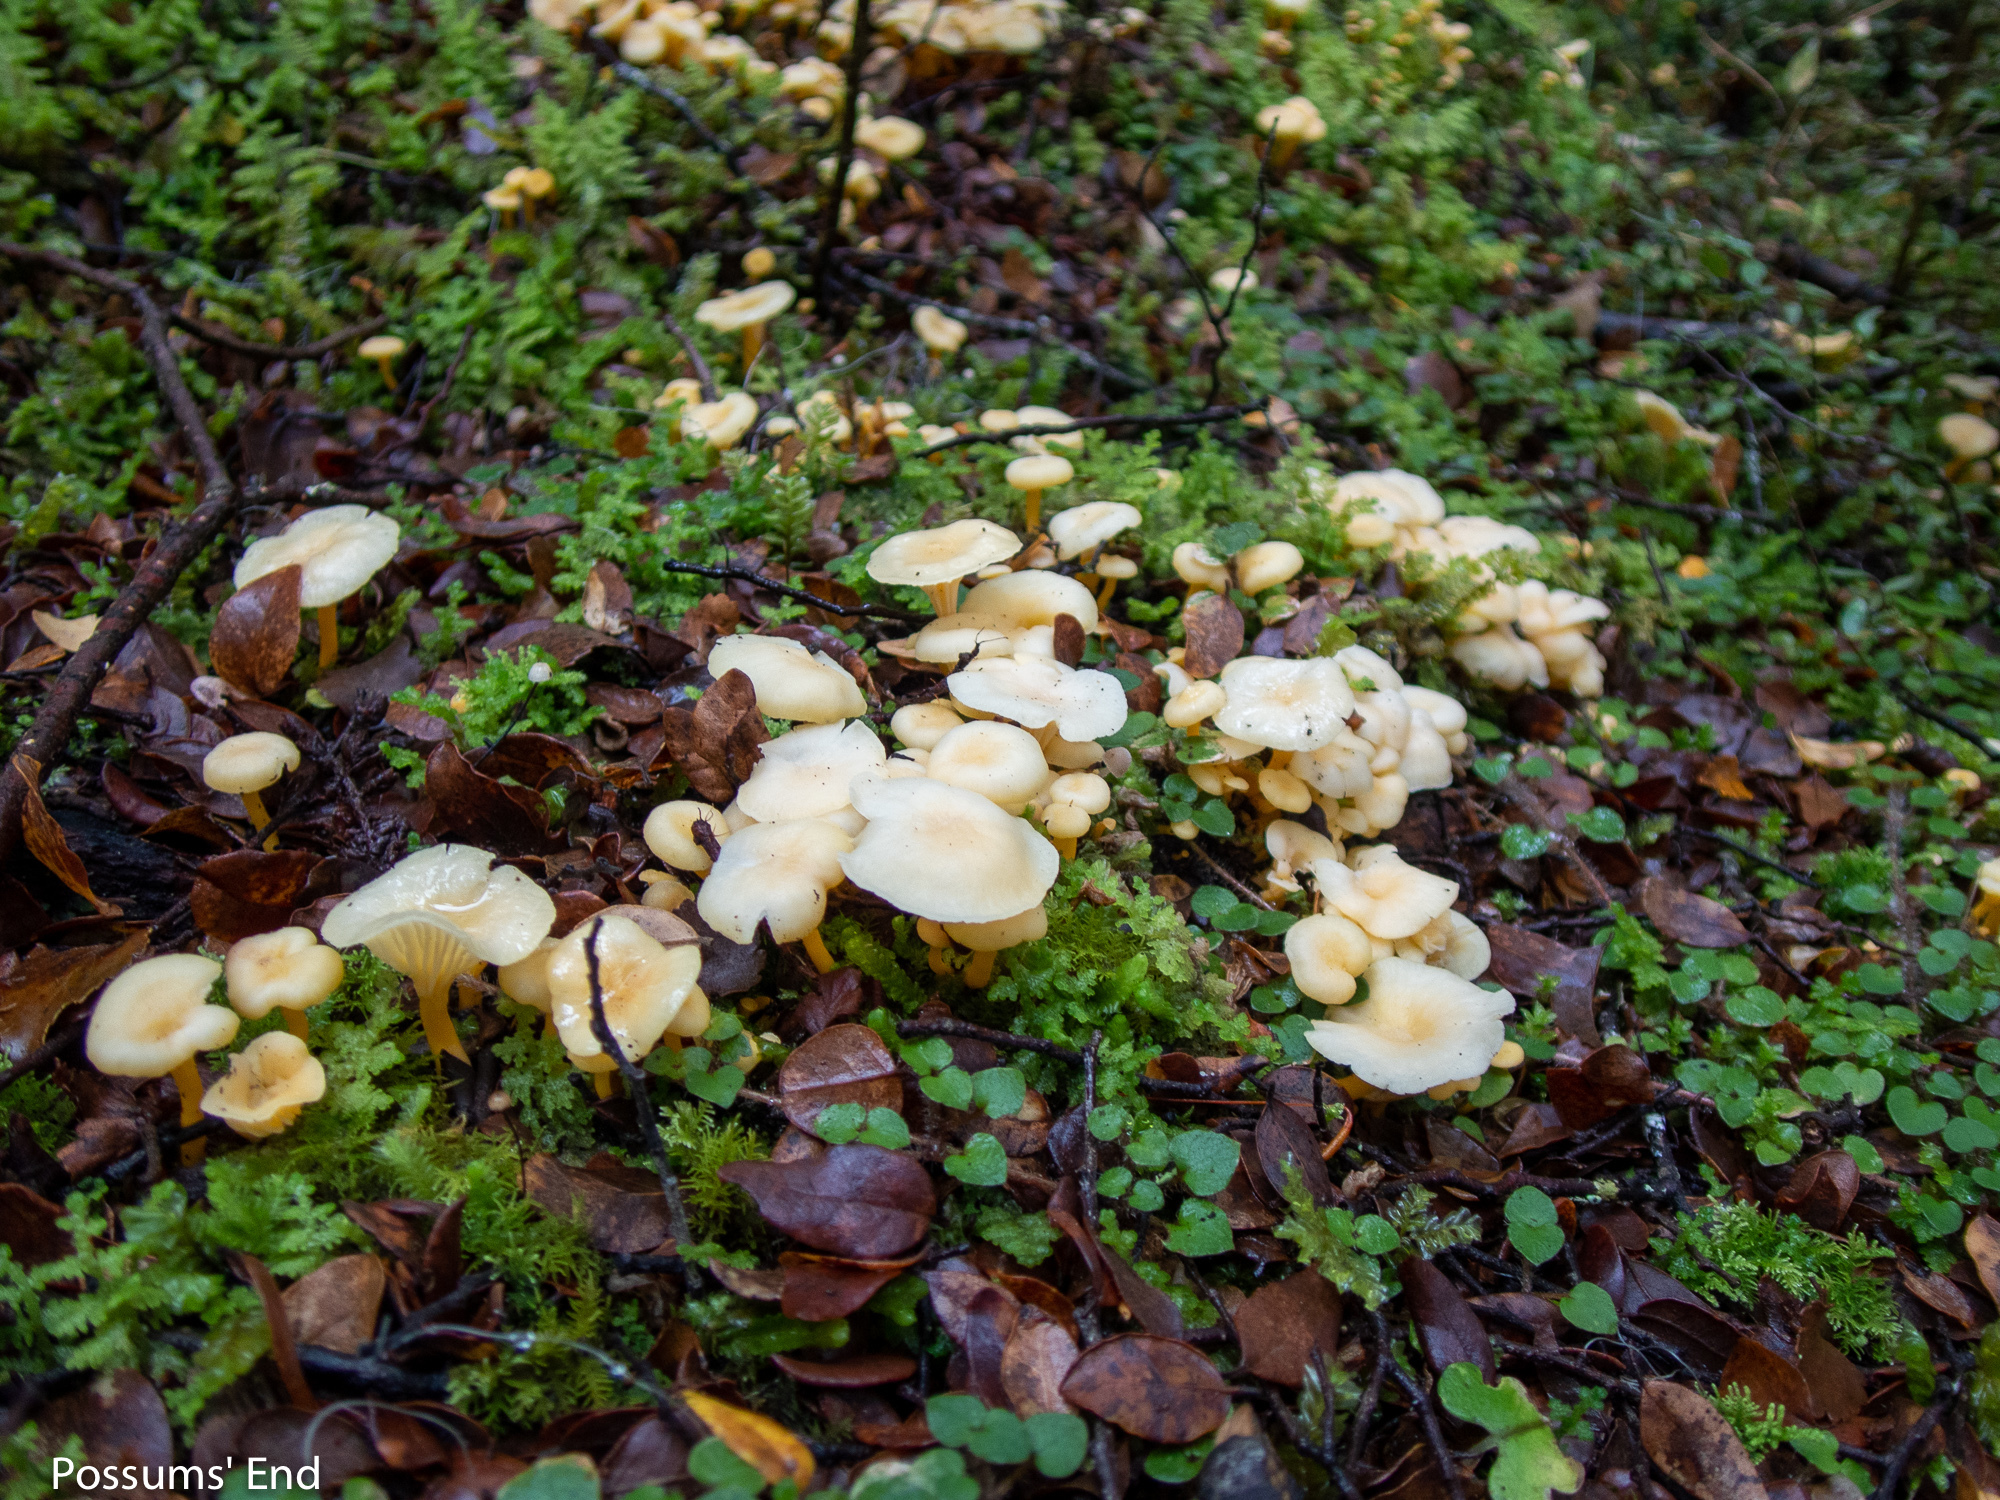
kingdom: Fungi
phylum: Basidiomycota
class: Agaricomycetes
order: Cantharellales
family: Hydnaceae
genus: Cantharellus
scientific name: Cantharellus wellingtonensis
